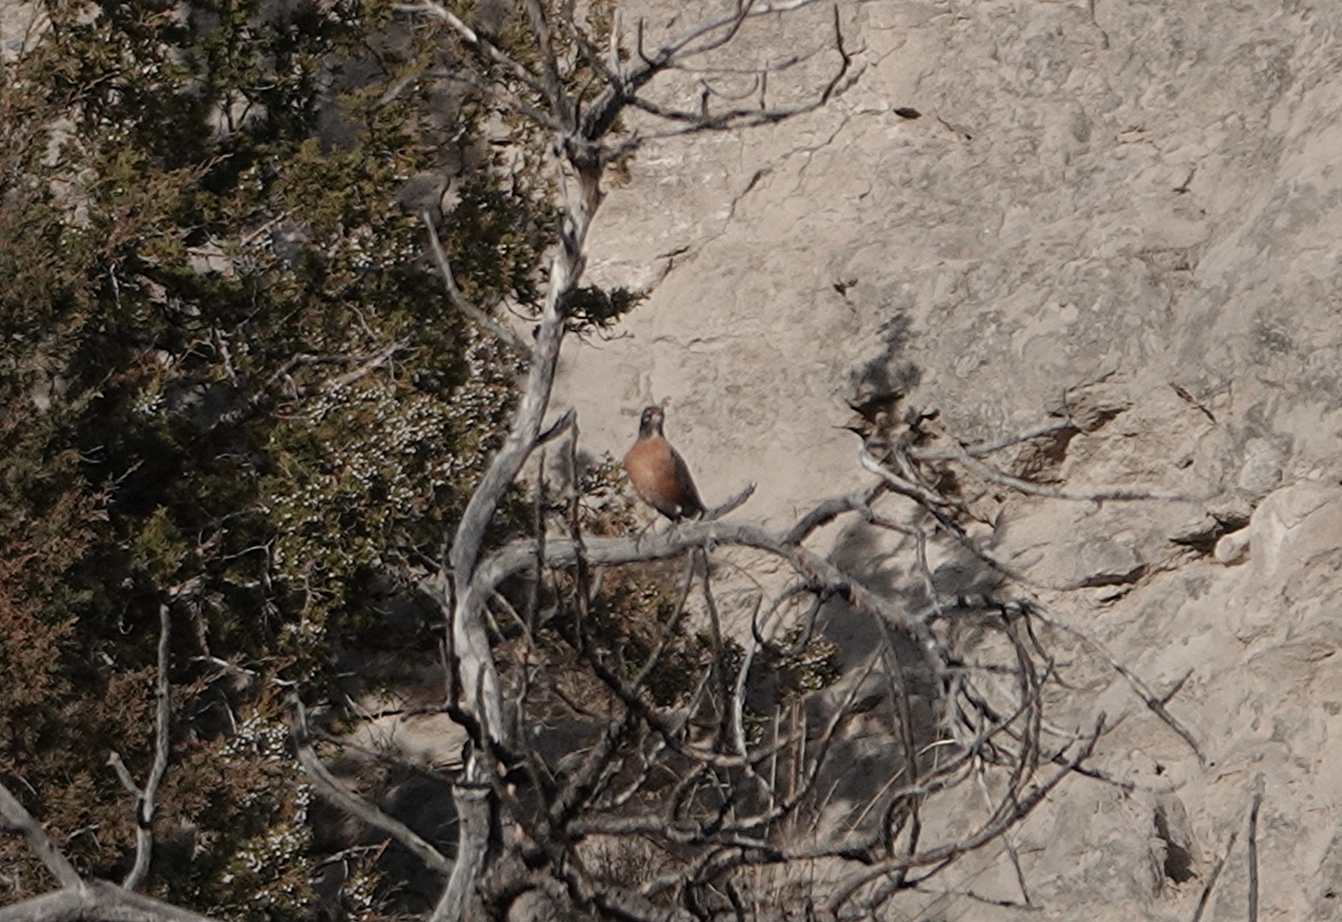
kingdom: Animalia
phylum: Chordata
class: Aves
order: Passeriformes
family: Turdidae
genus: Turdus
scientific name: Turdus migratorius
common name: American robin
